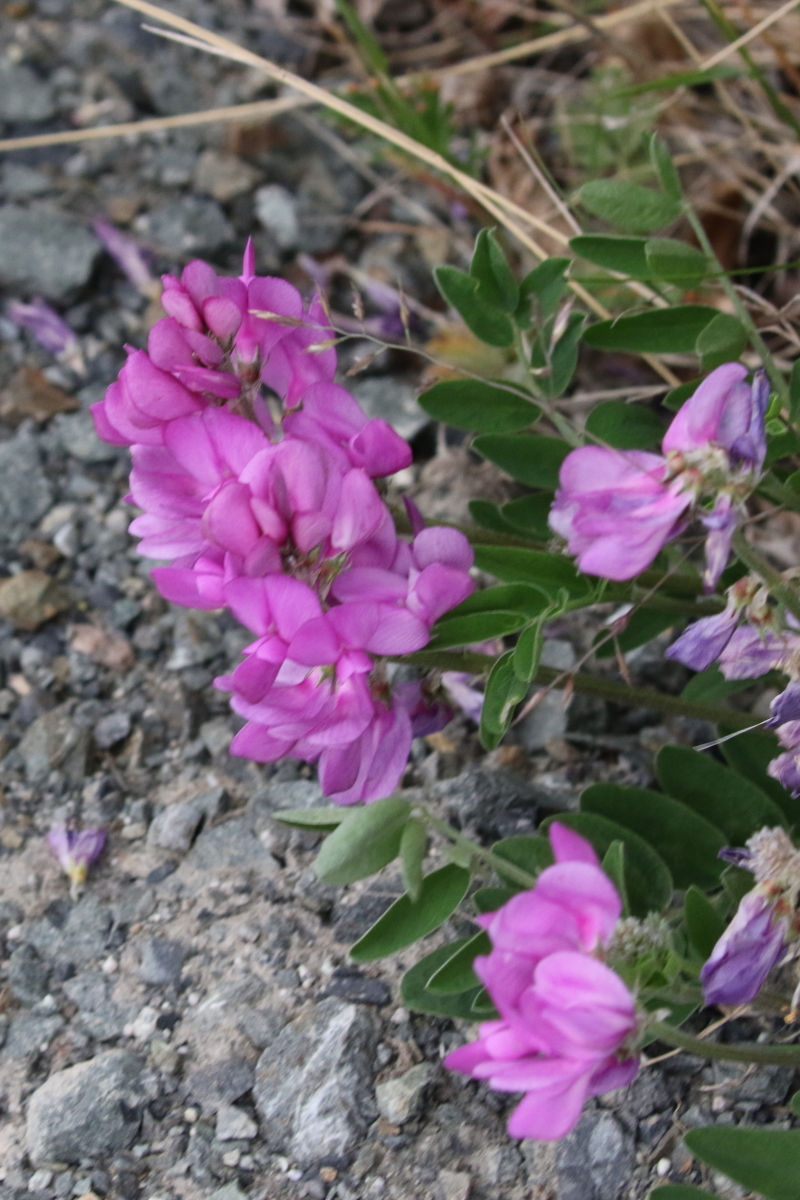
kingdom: Plantae
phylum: Tracheophyta
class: Magnoliopsida
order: Fabales
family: Fabaceae
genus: Hedysarum
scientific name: Hedysarum boreale
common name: Northern sweet-vetch
